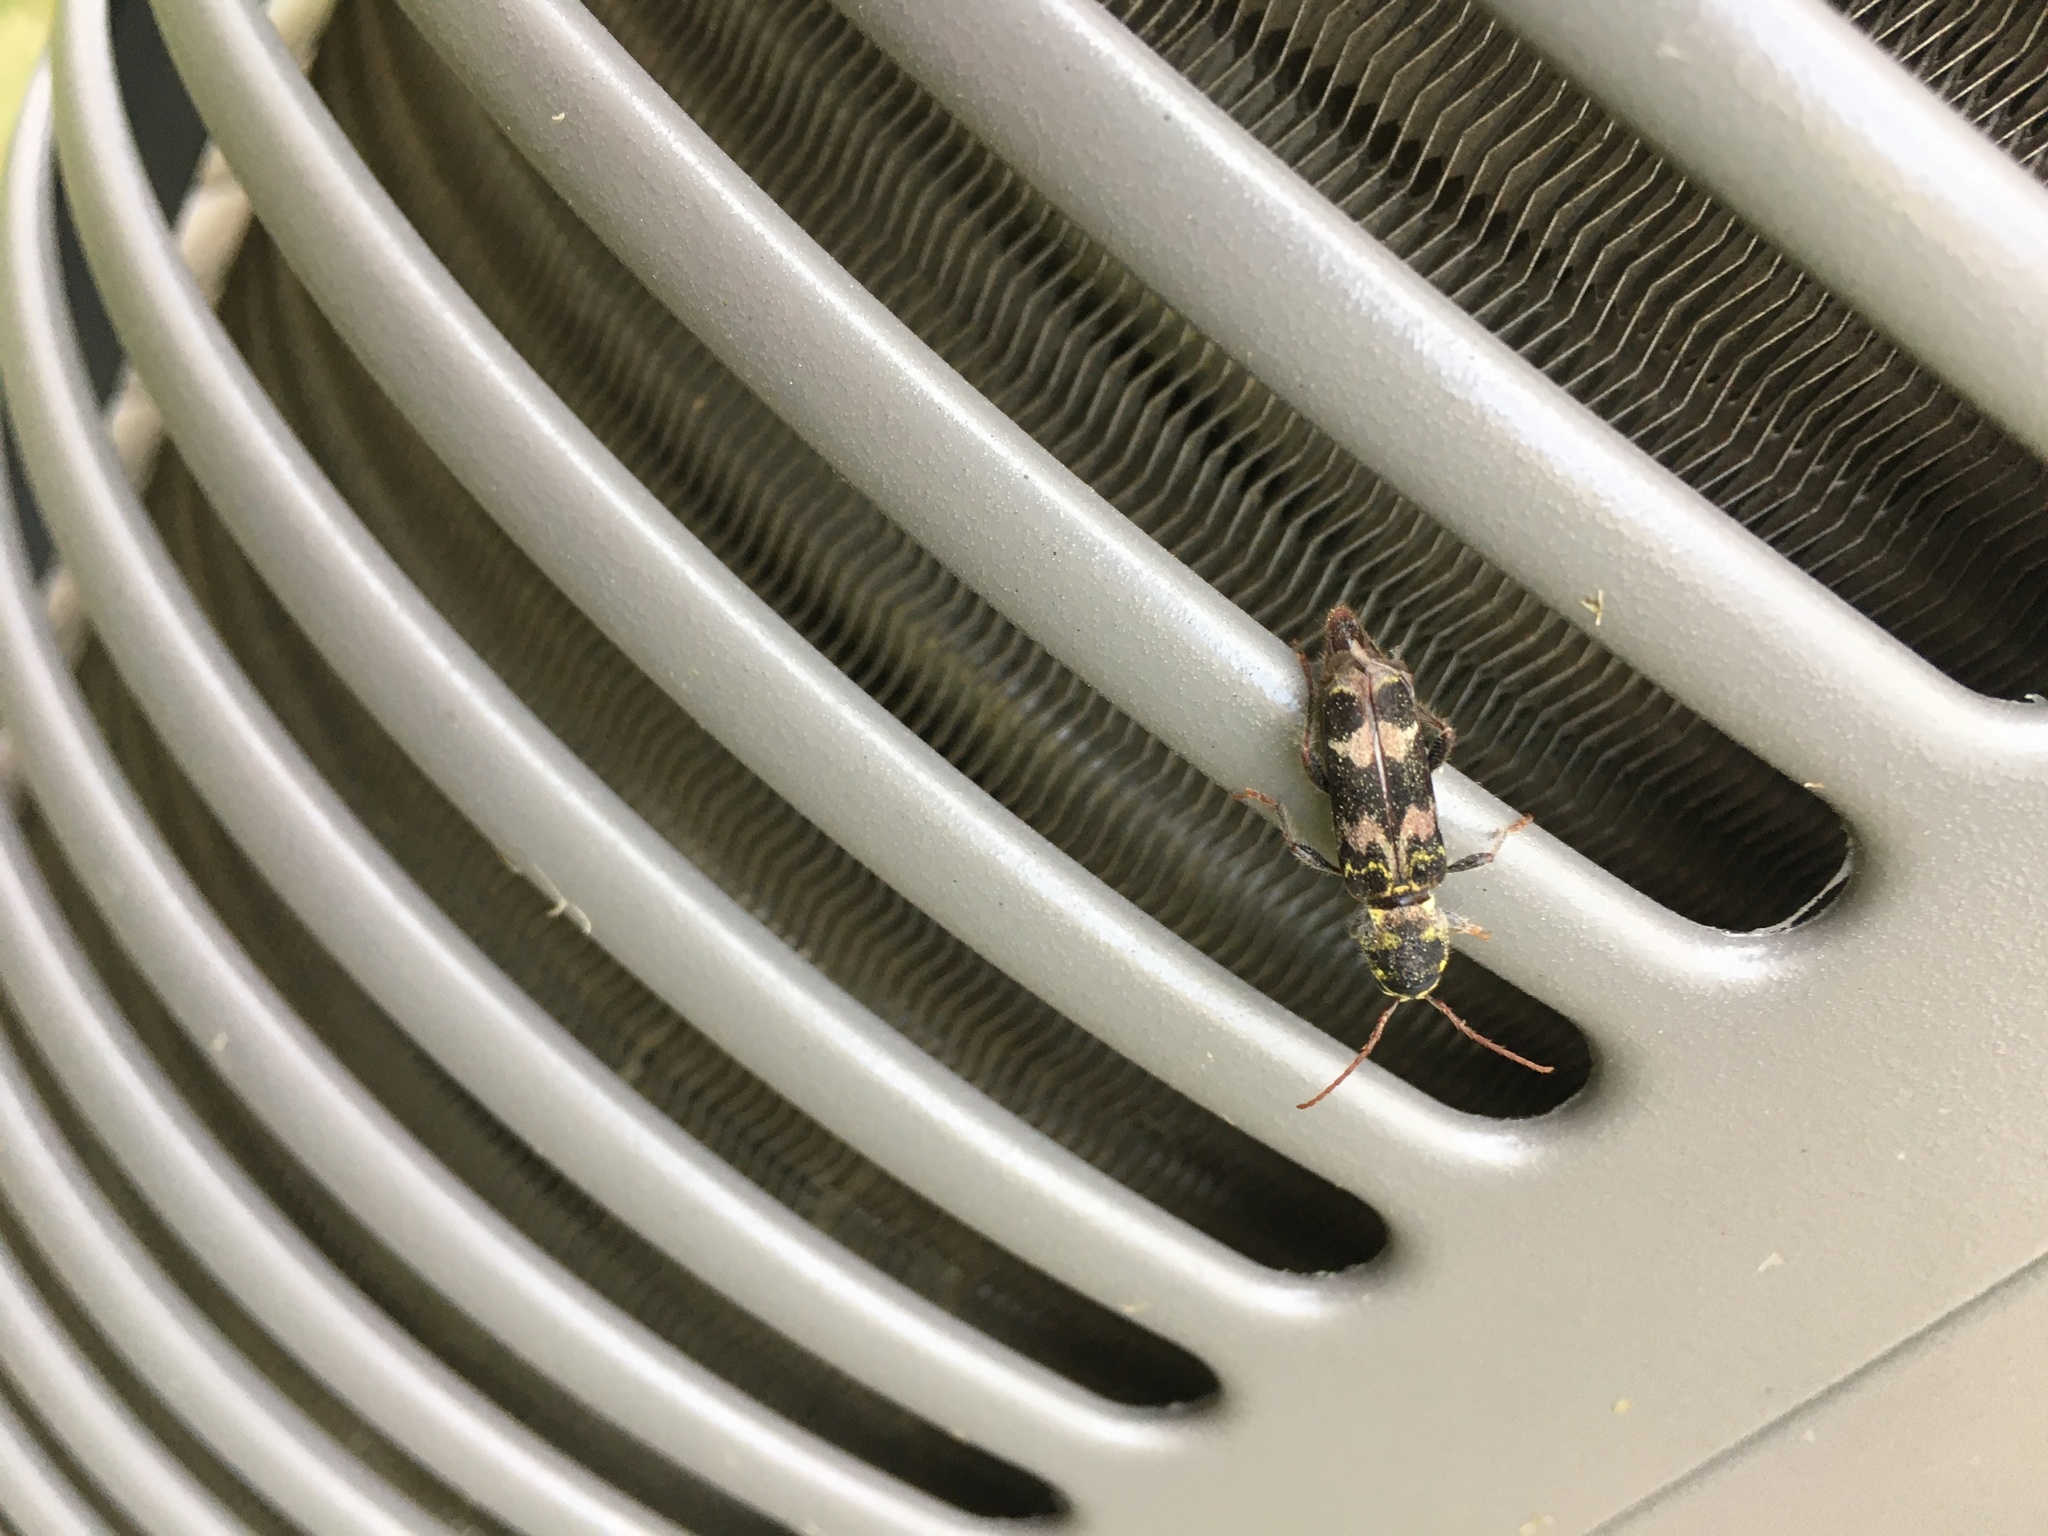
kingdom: Animalia
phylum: Arthropoda
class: Insecta
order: Coleoptera
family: Cerambycidae
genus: Xylotrechus
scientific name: Xylotrechus colonus
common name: Long-horned beetle
